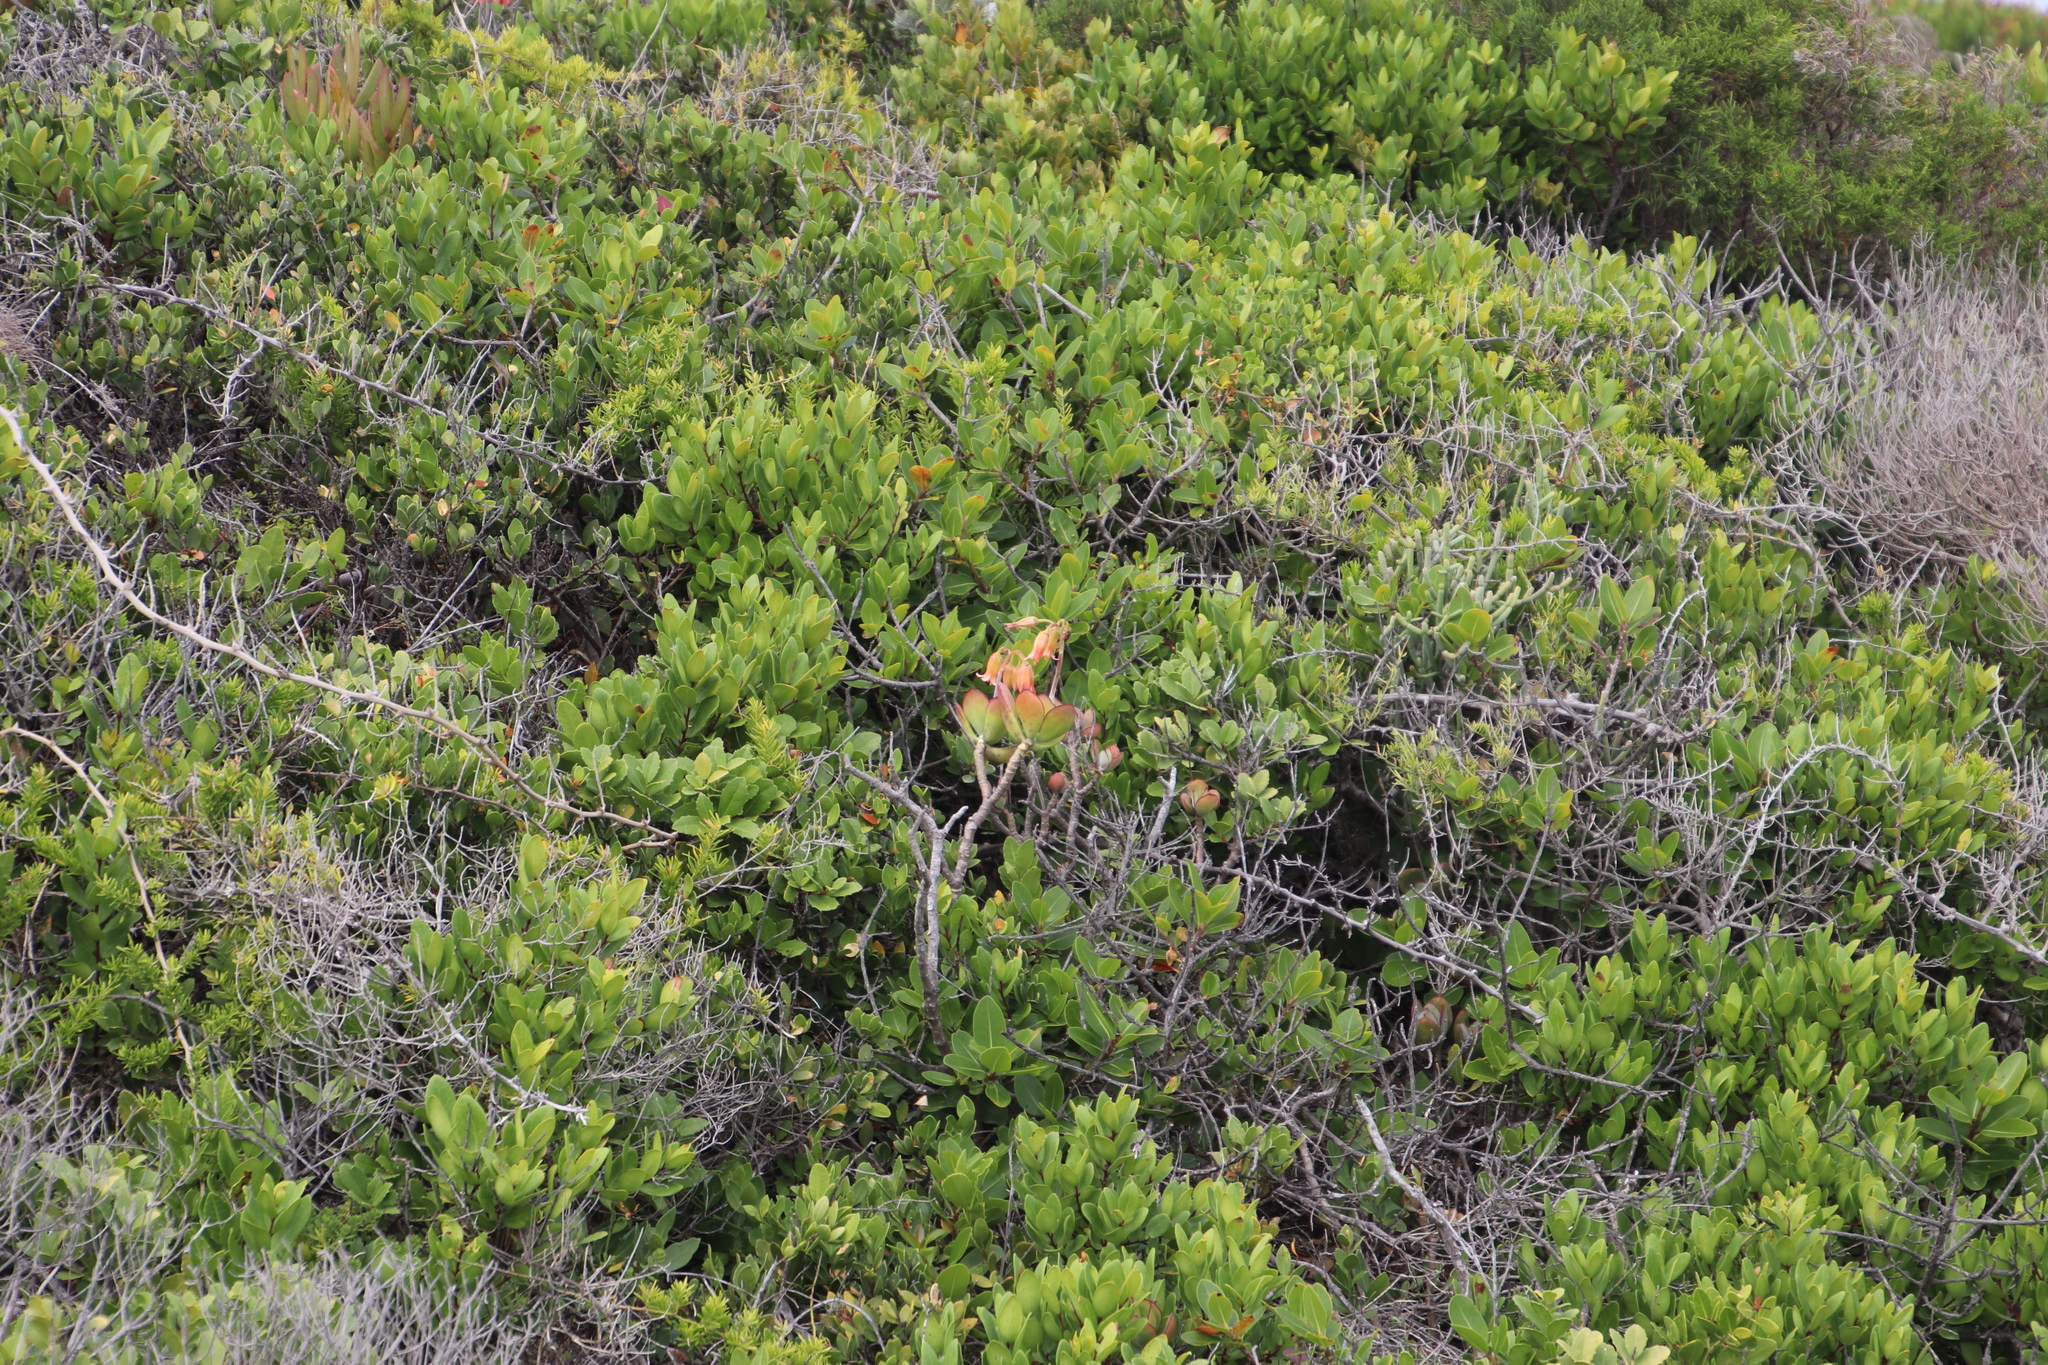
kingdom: Plantae
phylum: Tracheophyta
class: Magnoliopsida
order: Saxifragales
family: Crassulaceae
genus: Cotyledon
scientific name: Cotyledon orbiculata
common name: Pig's ear
